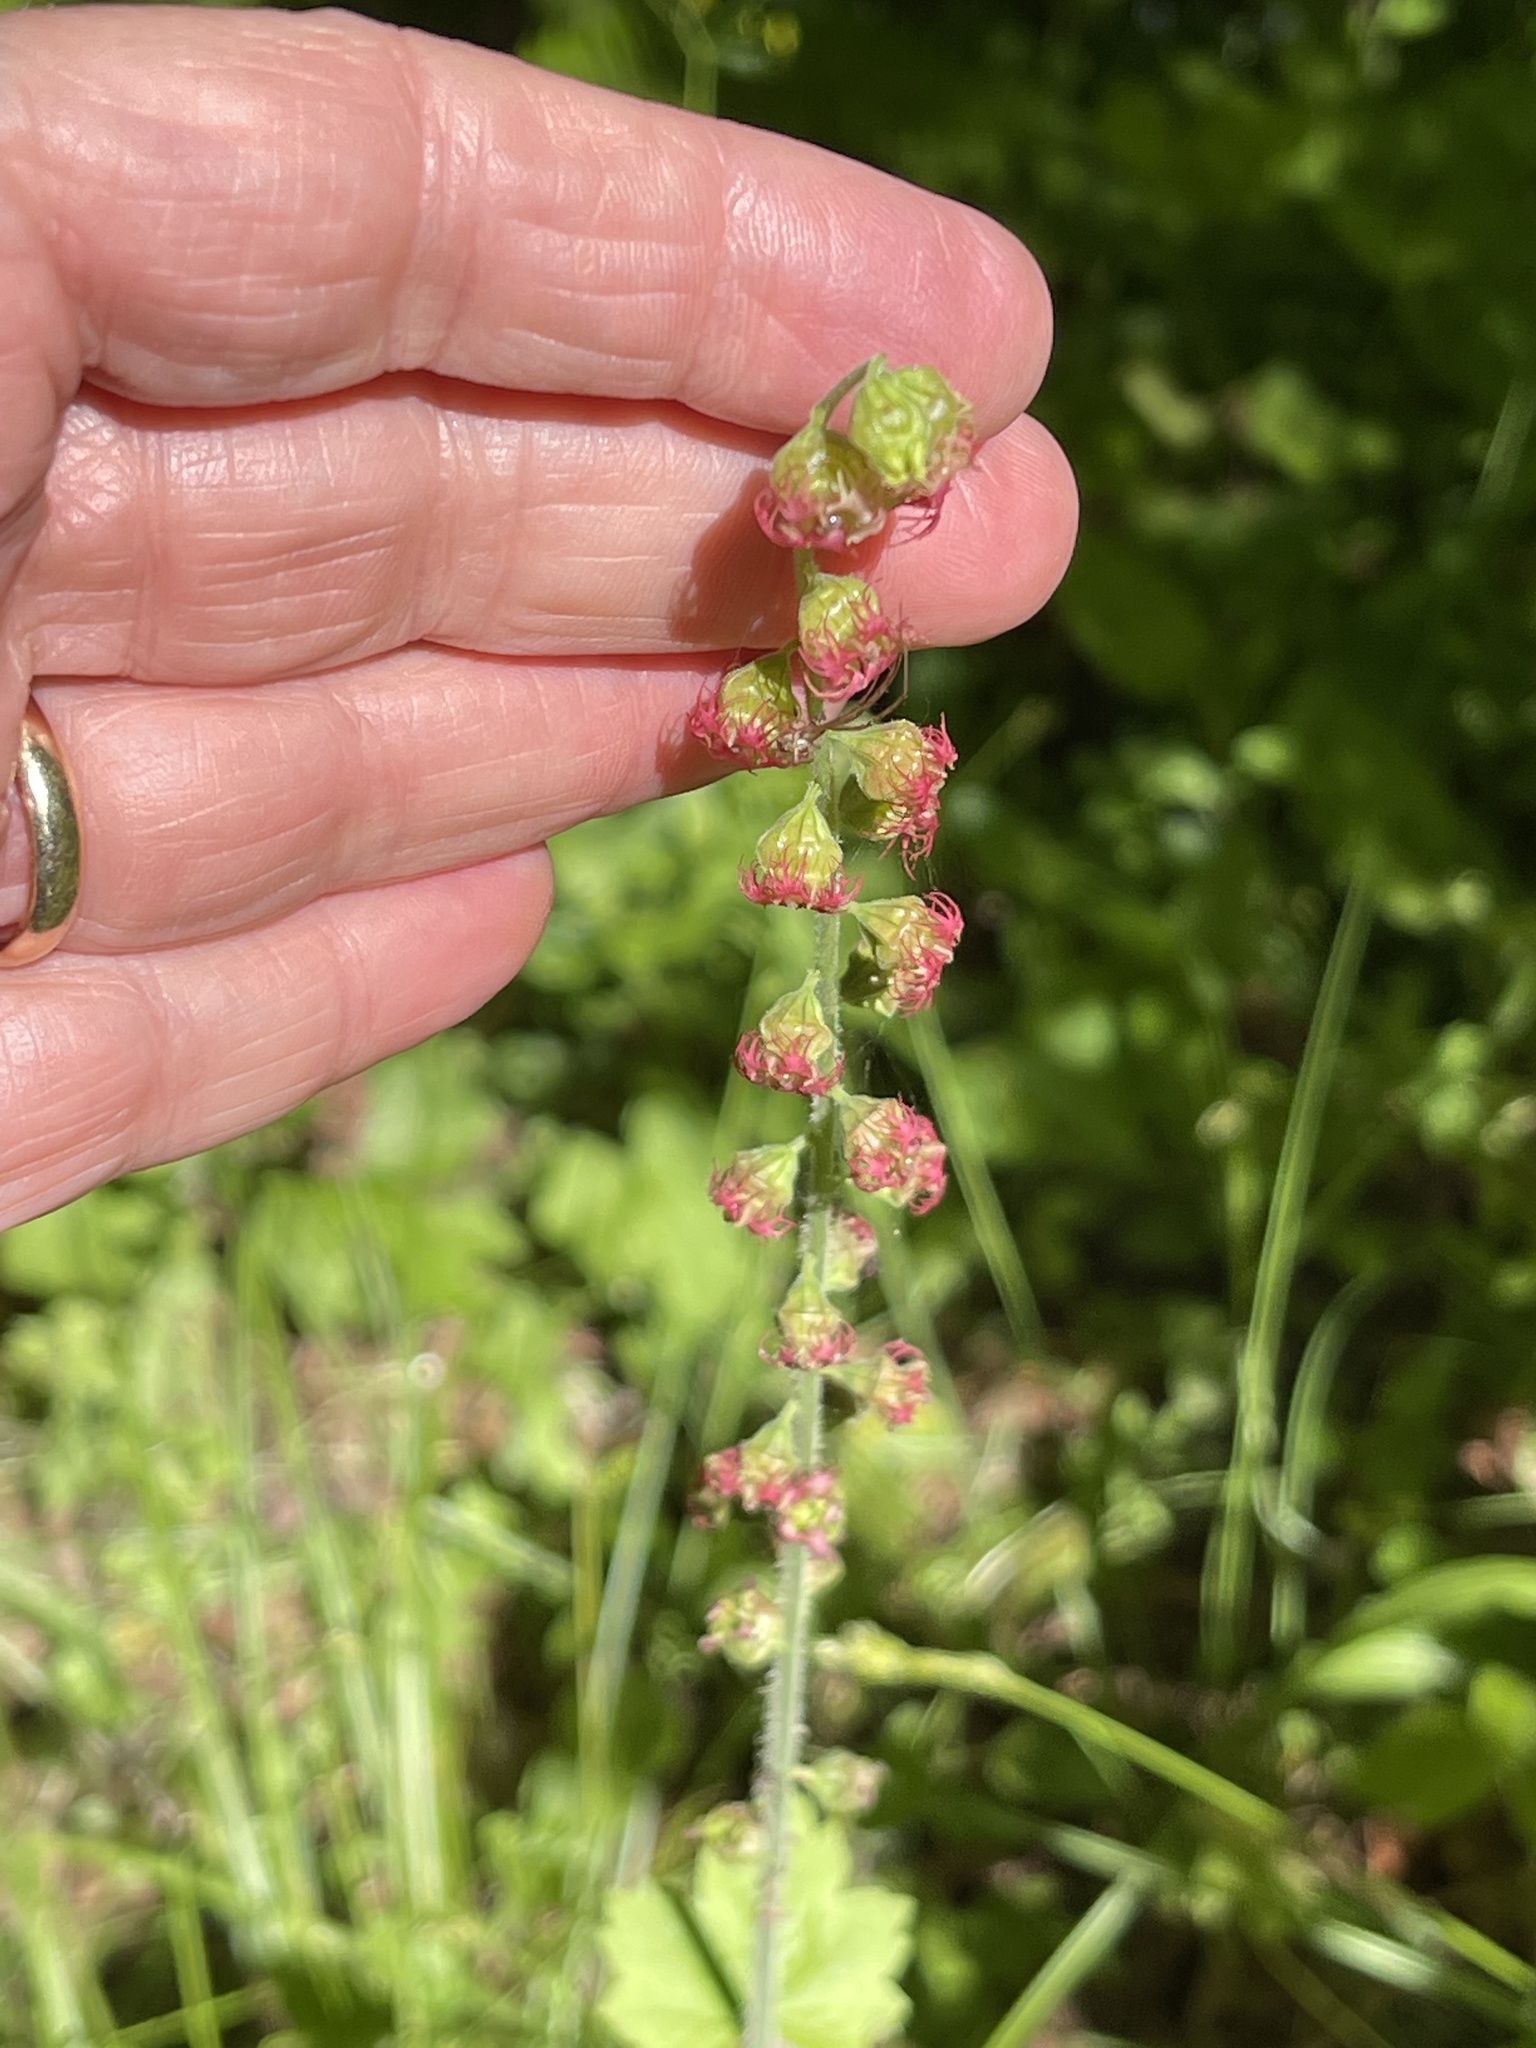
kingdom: Plantae
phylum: Tracheophyta
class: Magnoliopsida
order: Saxifragales
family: Saxifragaceae
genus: Tellima
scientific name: Tellima grandiflora
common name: Fringecups
